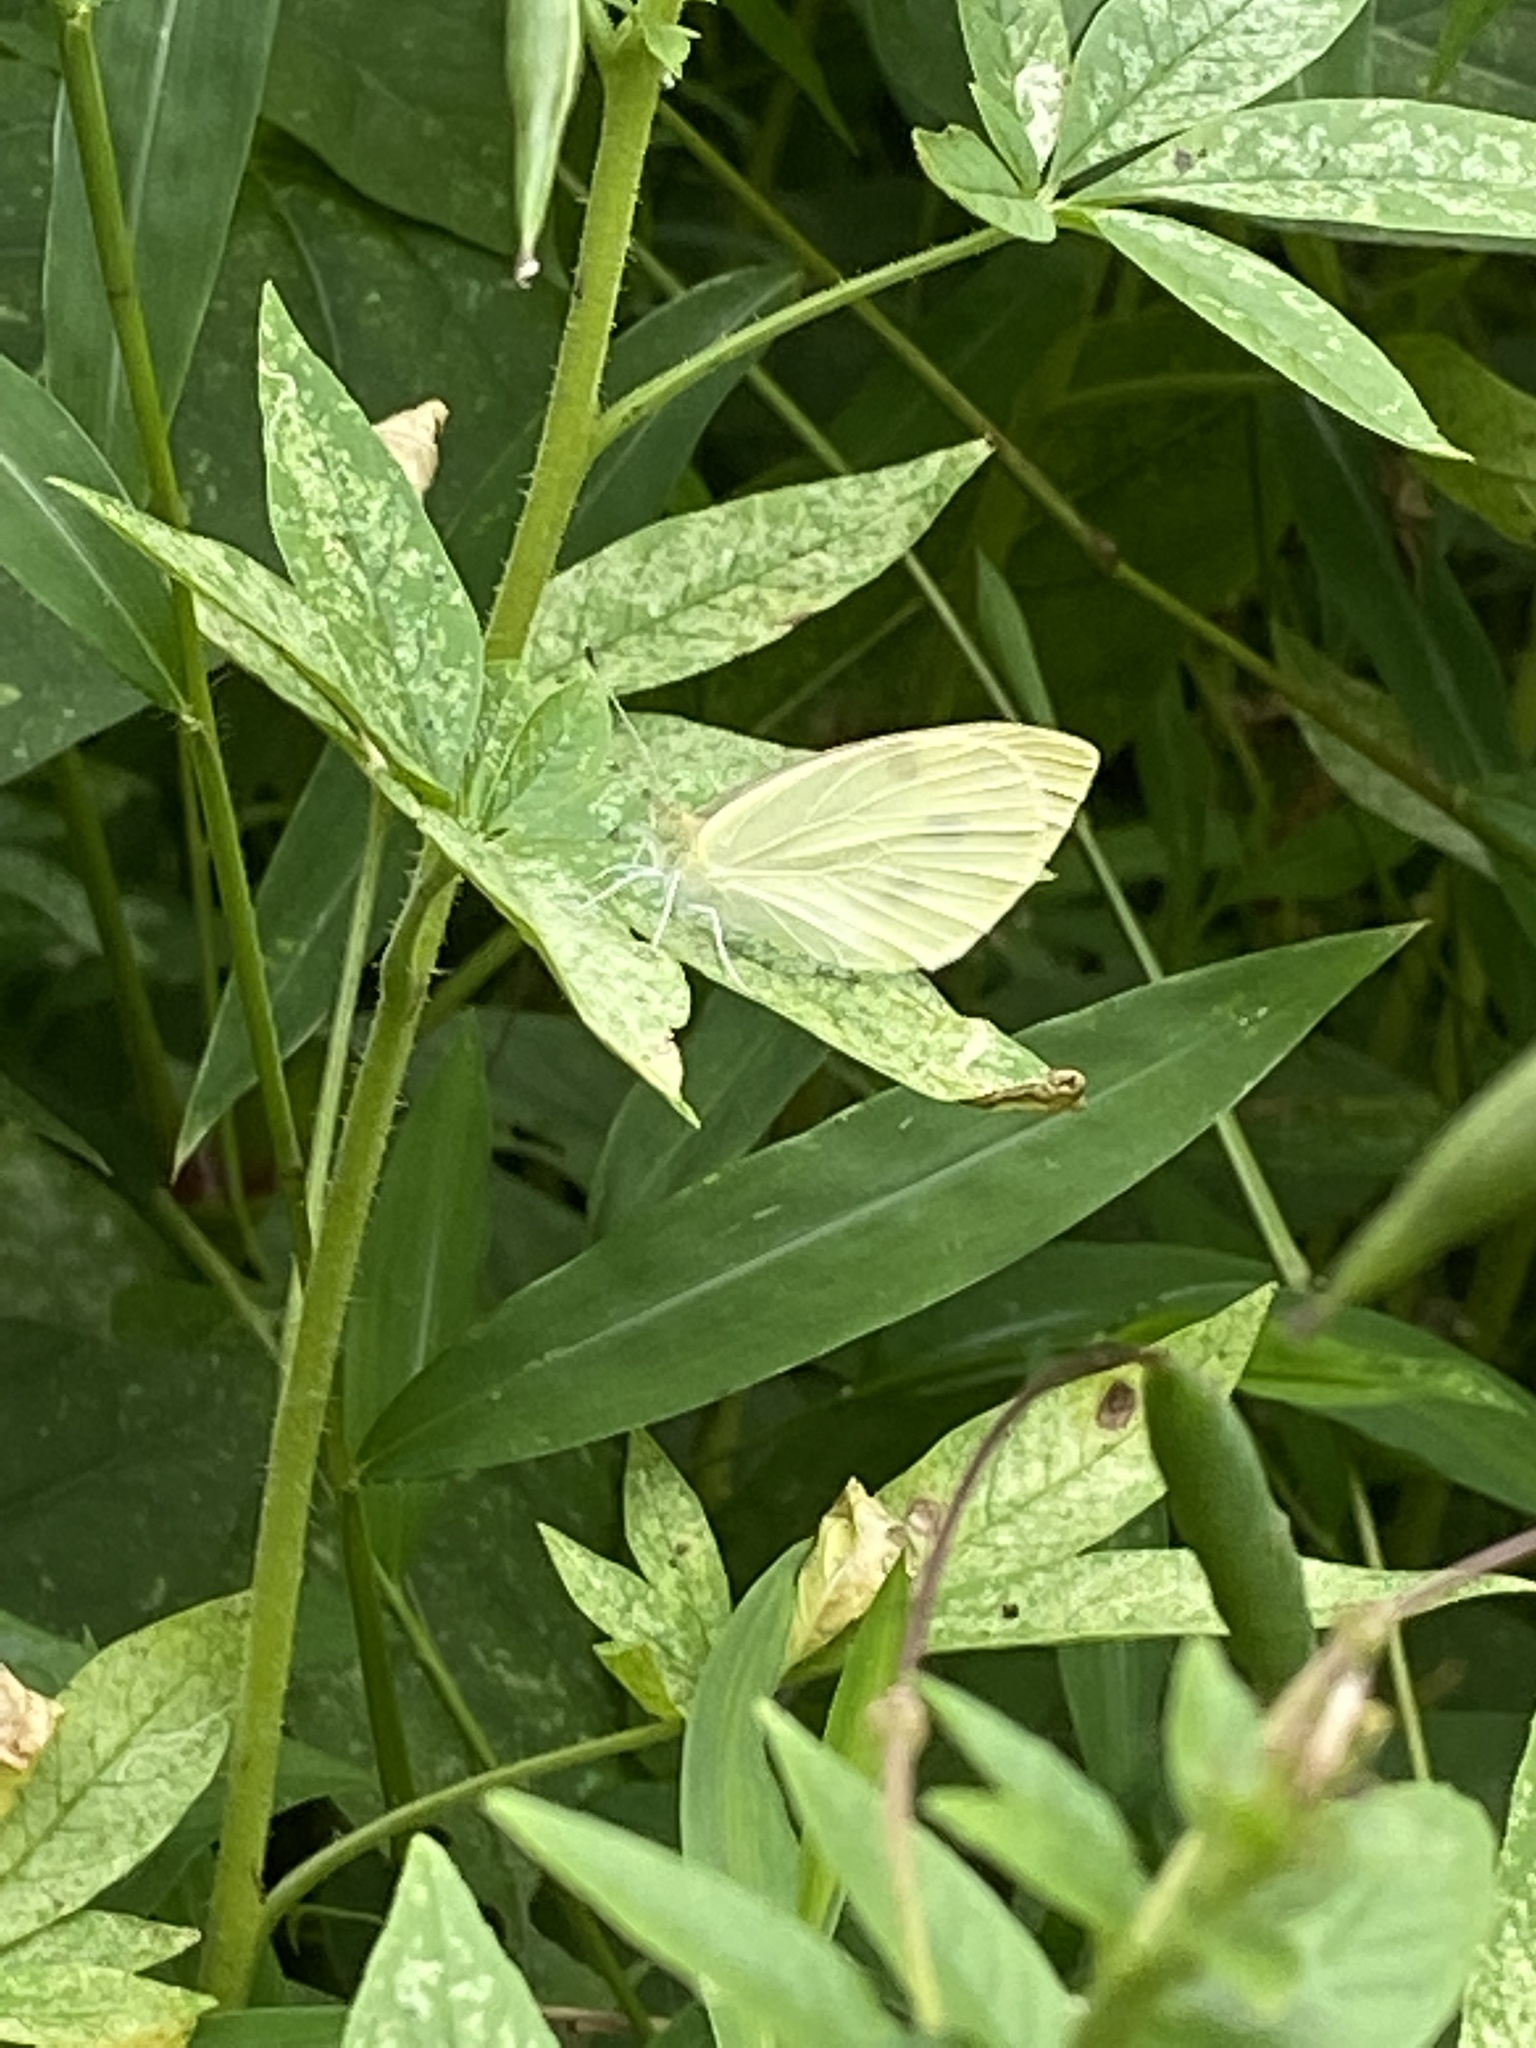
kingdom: Animalia
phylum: Arthropoda
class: Insecta
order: Lepidoptera
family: Pieridae
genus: Pieris
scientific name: Pieris rapae
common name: Small white
